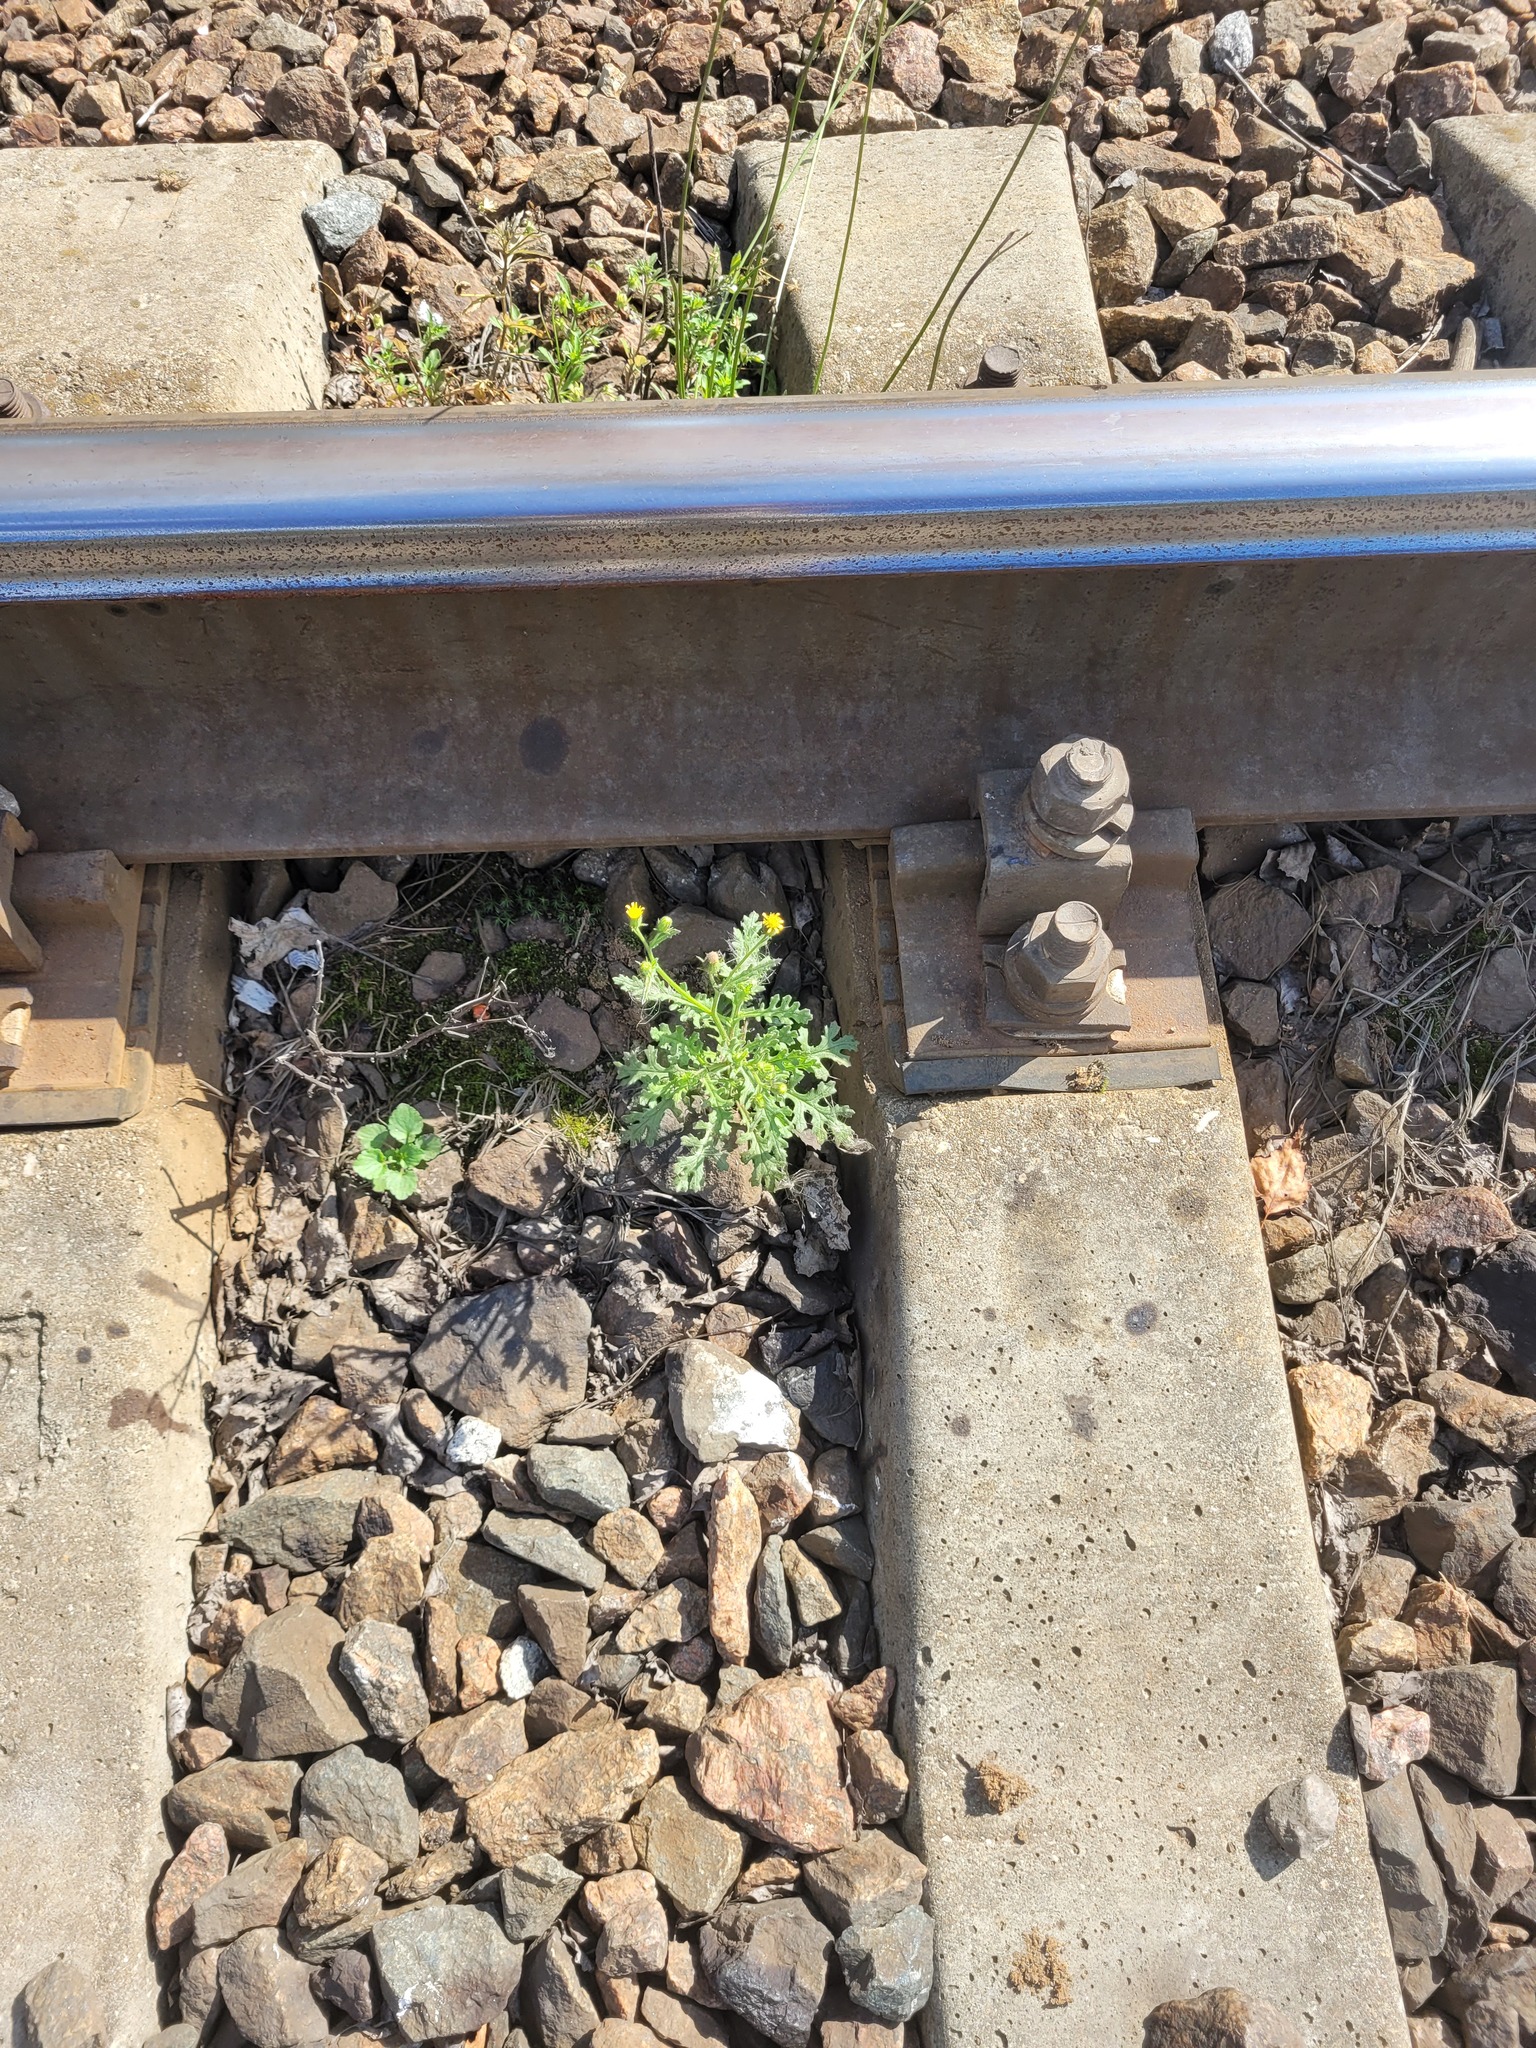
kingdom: Plantae
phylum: Tracheophyta
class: Magnoliopsida
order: Asterales
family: Asteraceae
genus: Senecio
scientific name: Senecio viscosus
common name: Sticky groundsel
